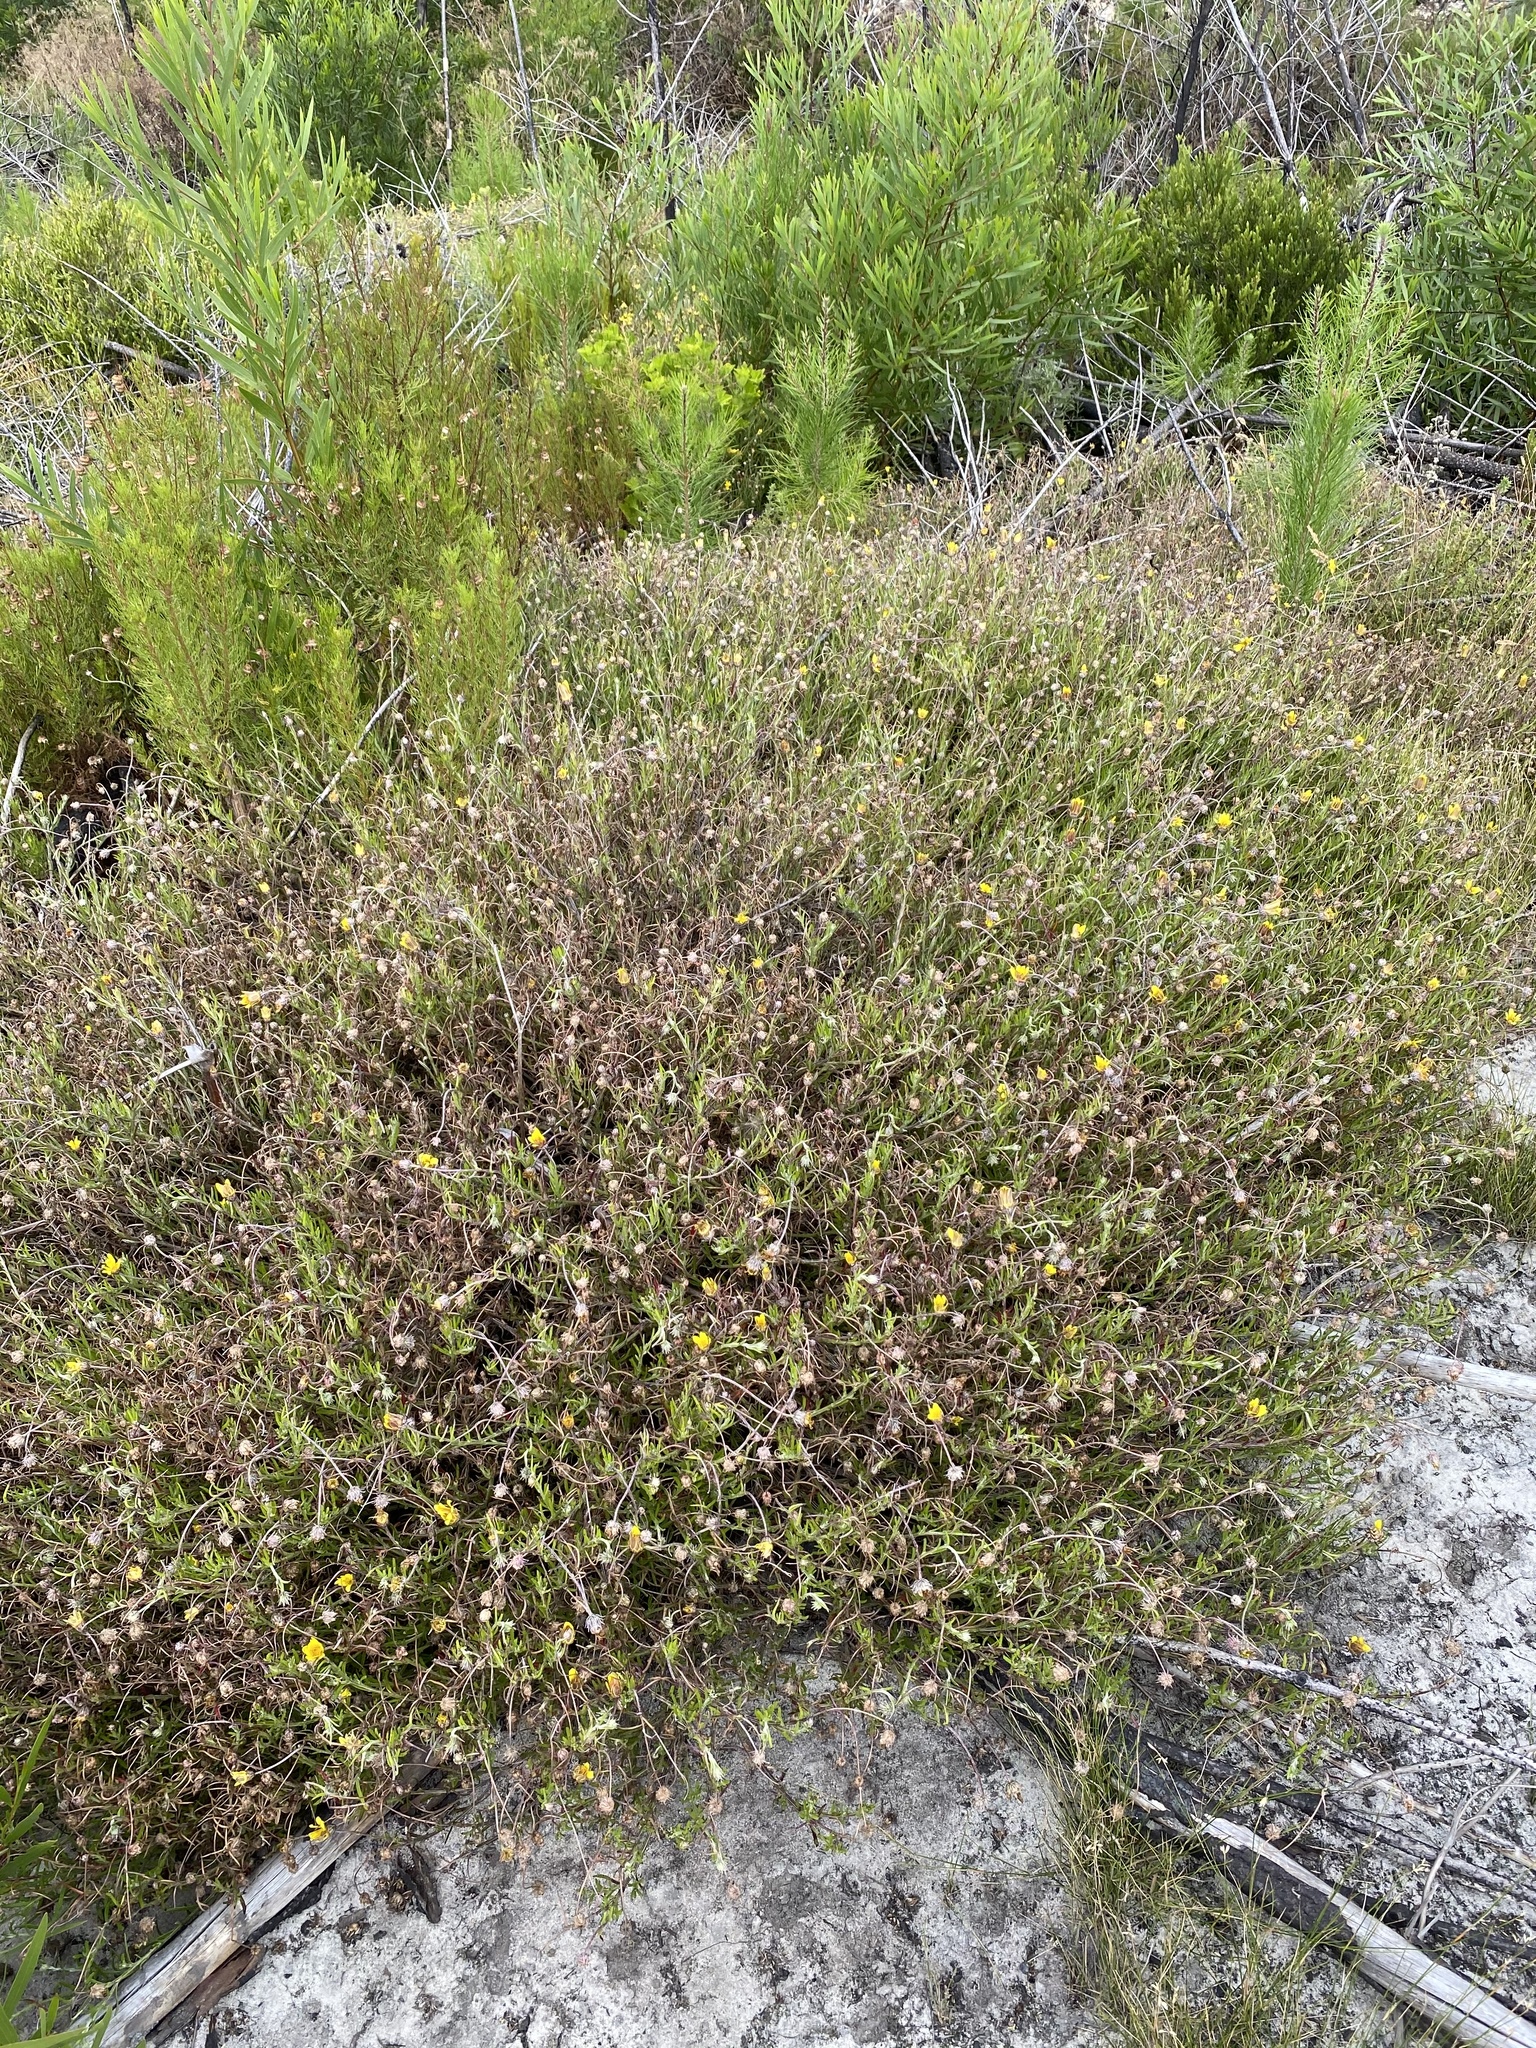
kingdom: Plantae
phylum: Tracheophyta
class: Magnoliopsida
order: Asterales
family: Asteraceae
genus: Arctotis
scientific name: Arctotis scabra
